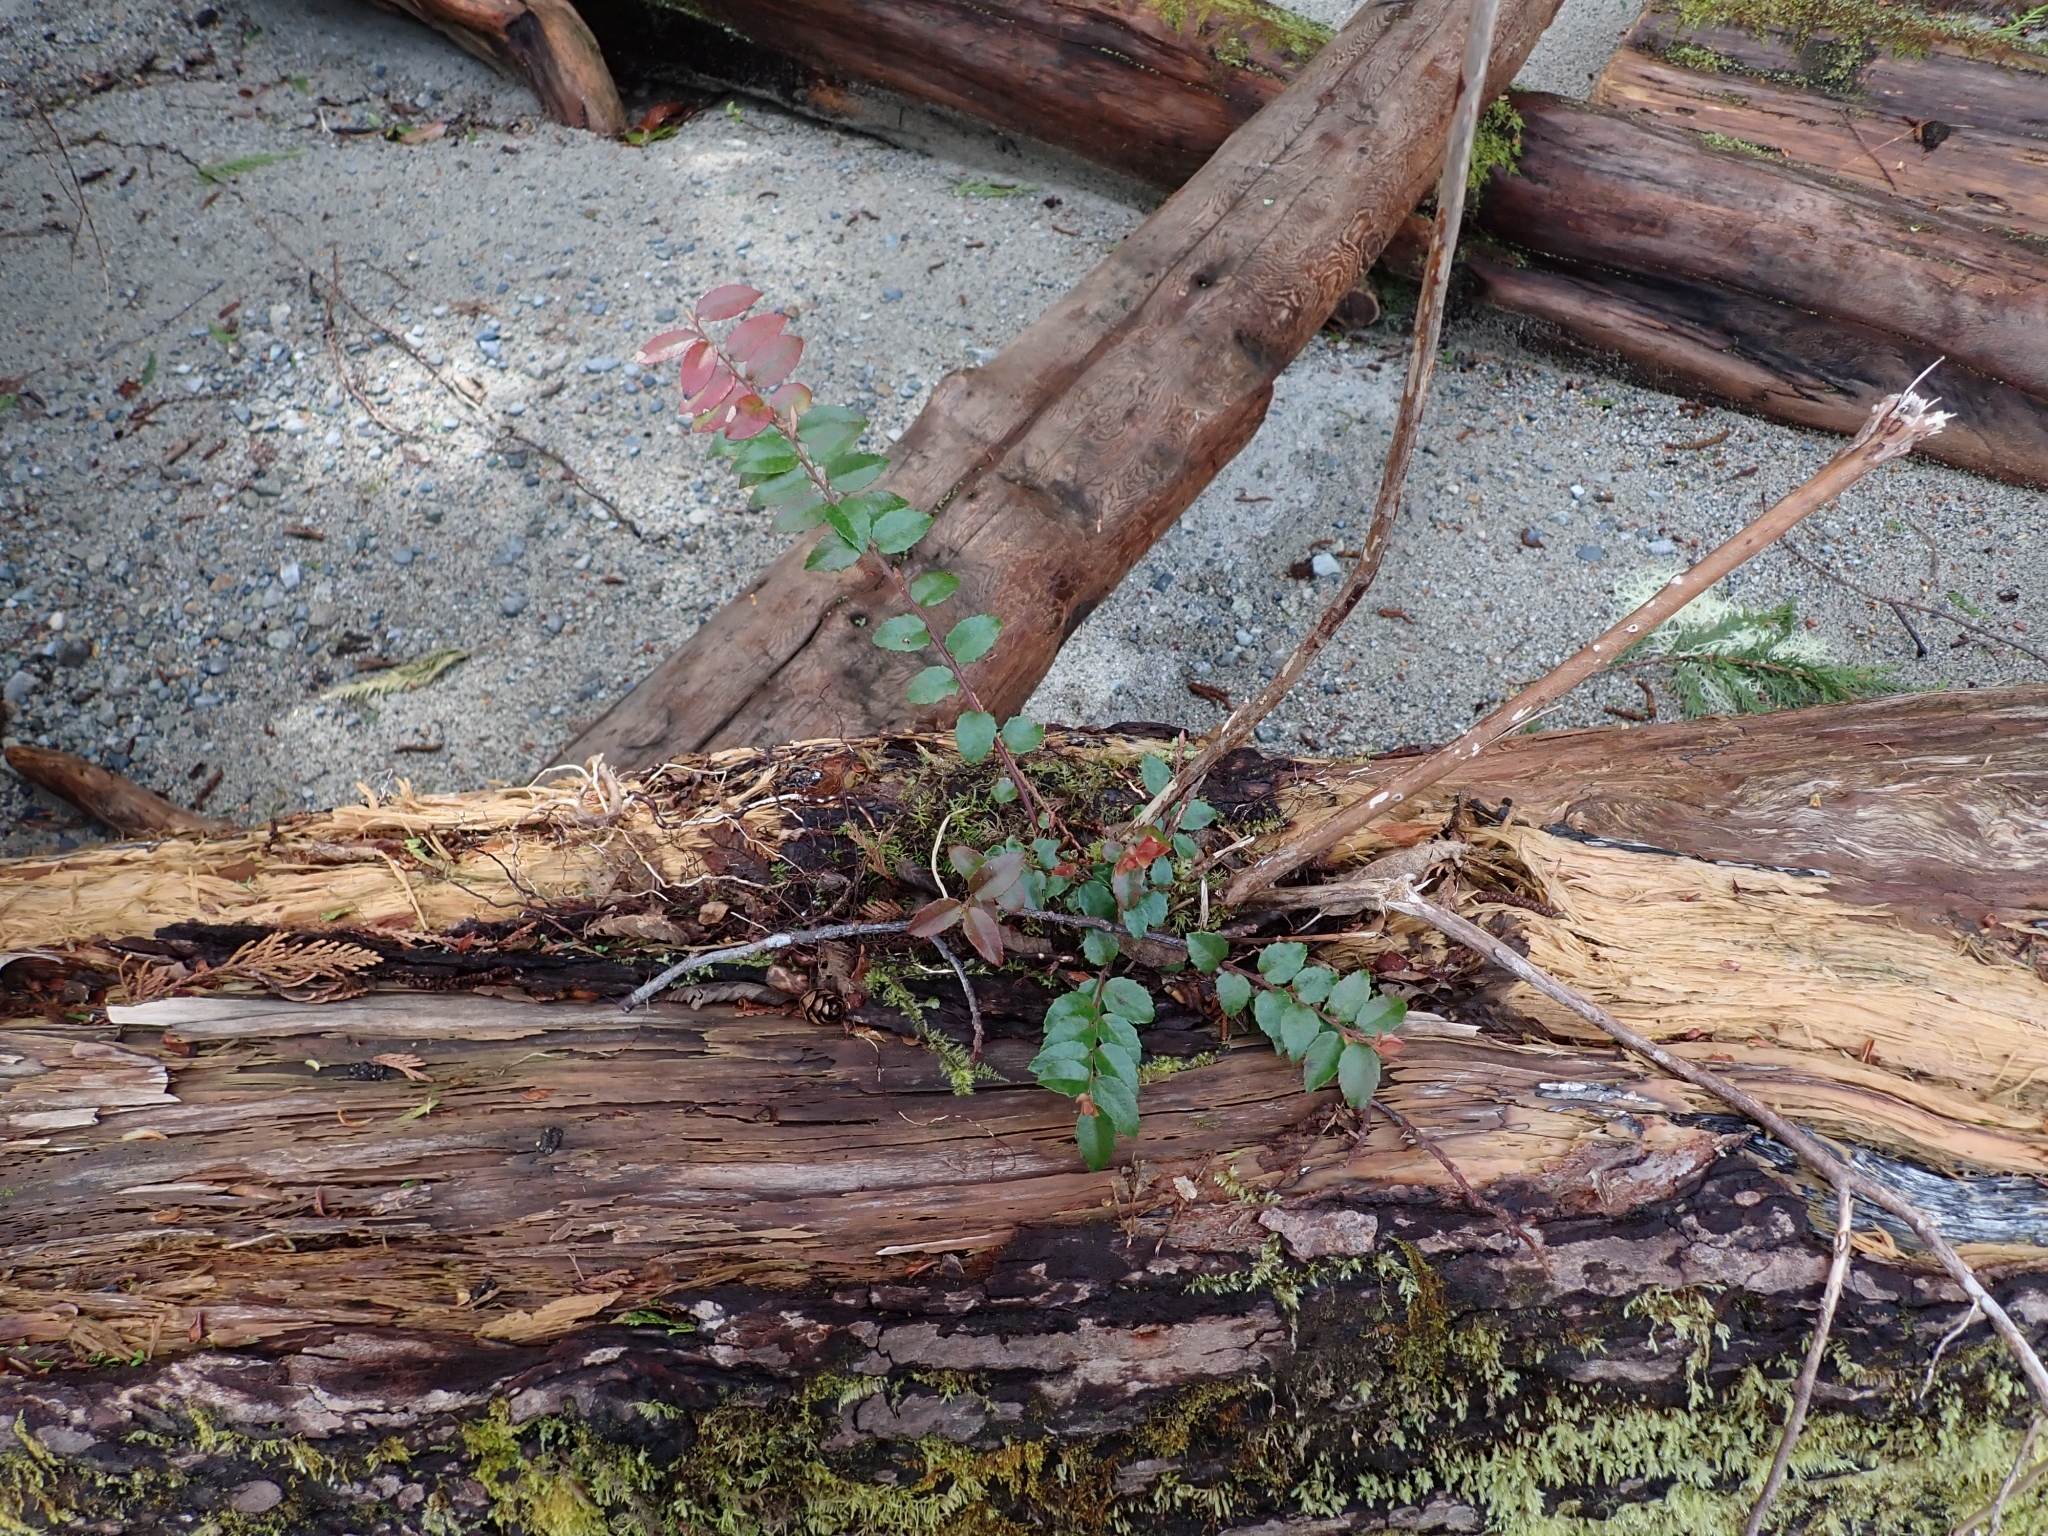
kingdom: Plantae
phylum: Tracheophyta
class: Magnoliopsida
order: Ericales
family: Ericaceae
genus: Vaccinium
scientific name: Vaccinium ovatum
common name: California-huckleberry
